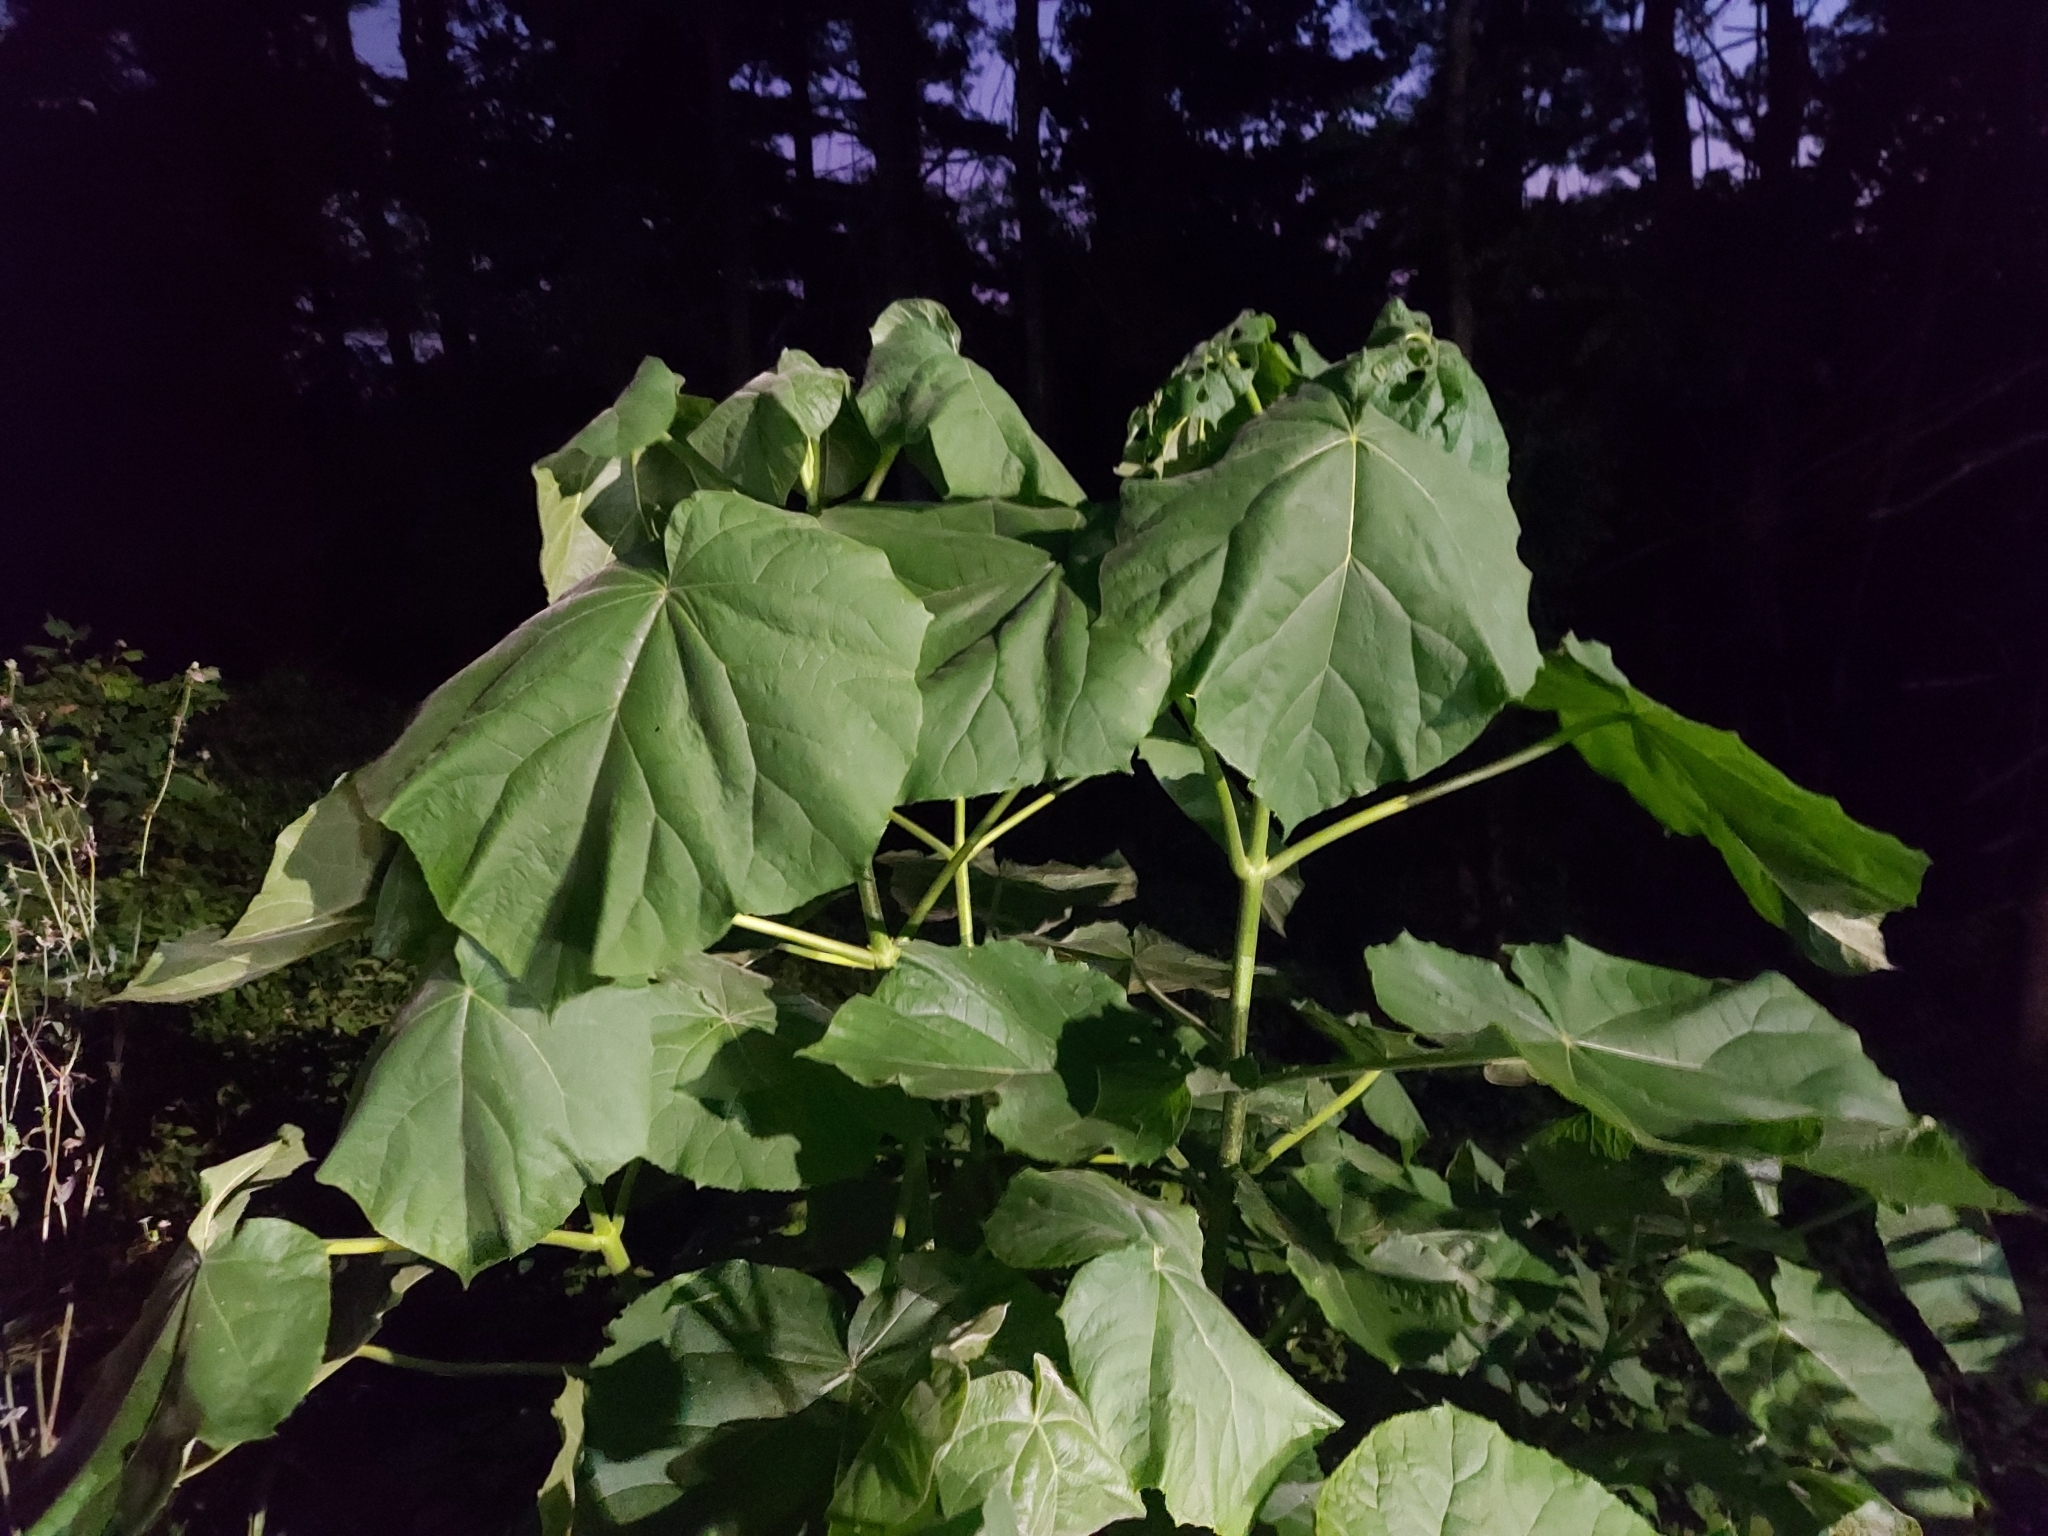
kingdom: Plantae
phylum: Tracheophyta
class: Magnoliopsida
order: Lamiales
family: Paulowniaceae
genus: Paulownia
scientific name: Paulownia tomentosa
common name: Foxglove-tree
